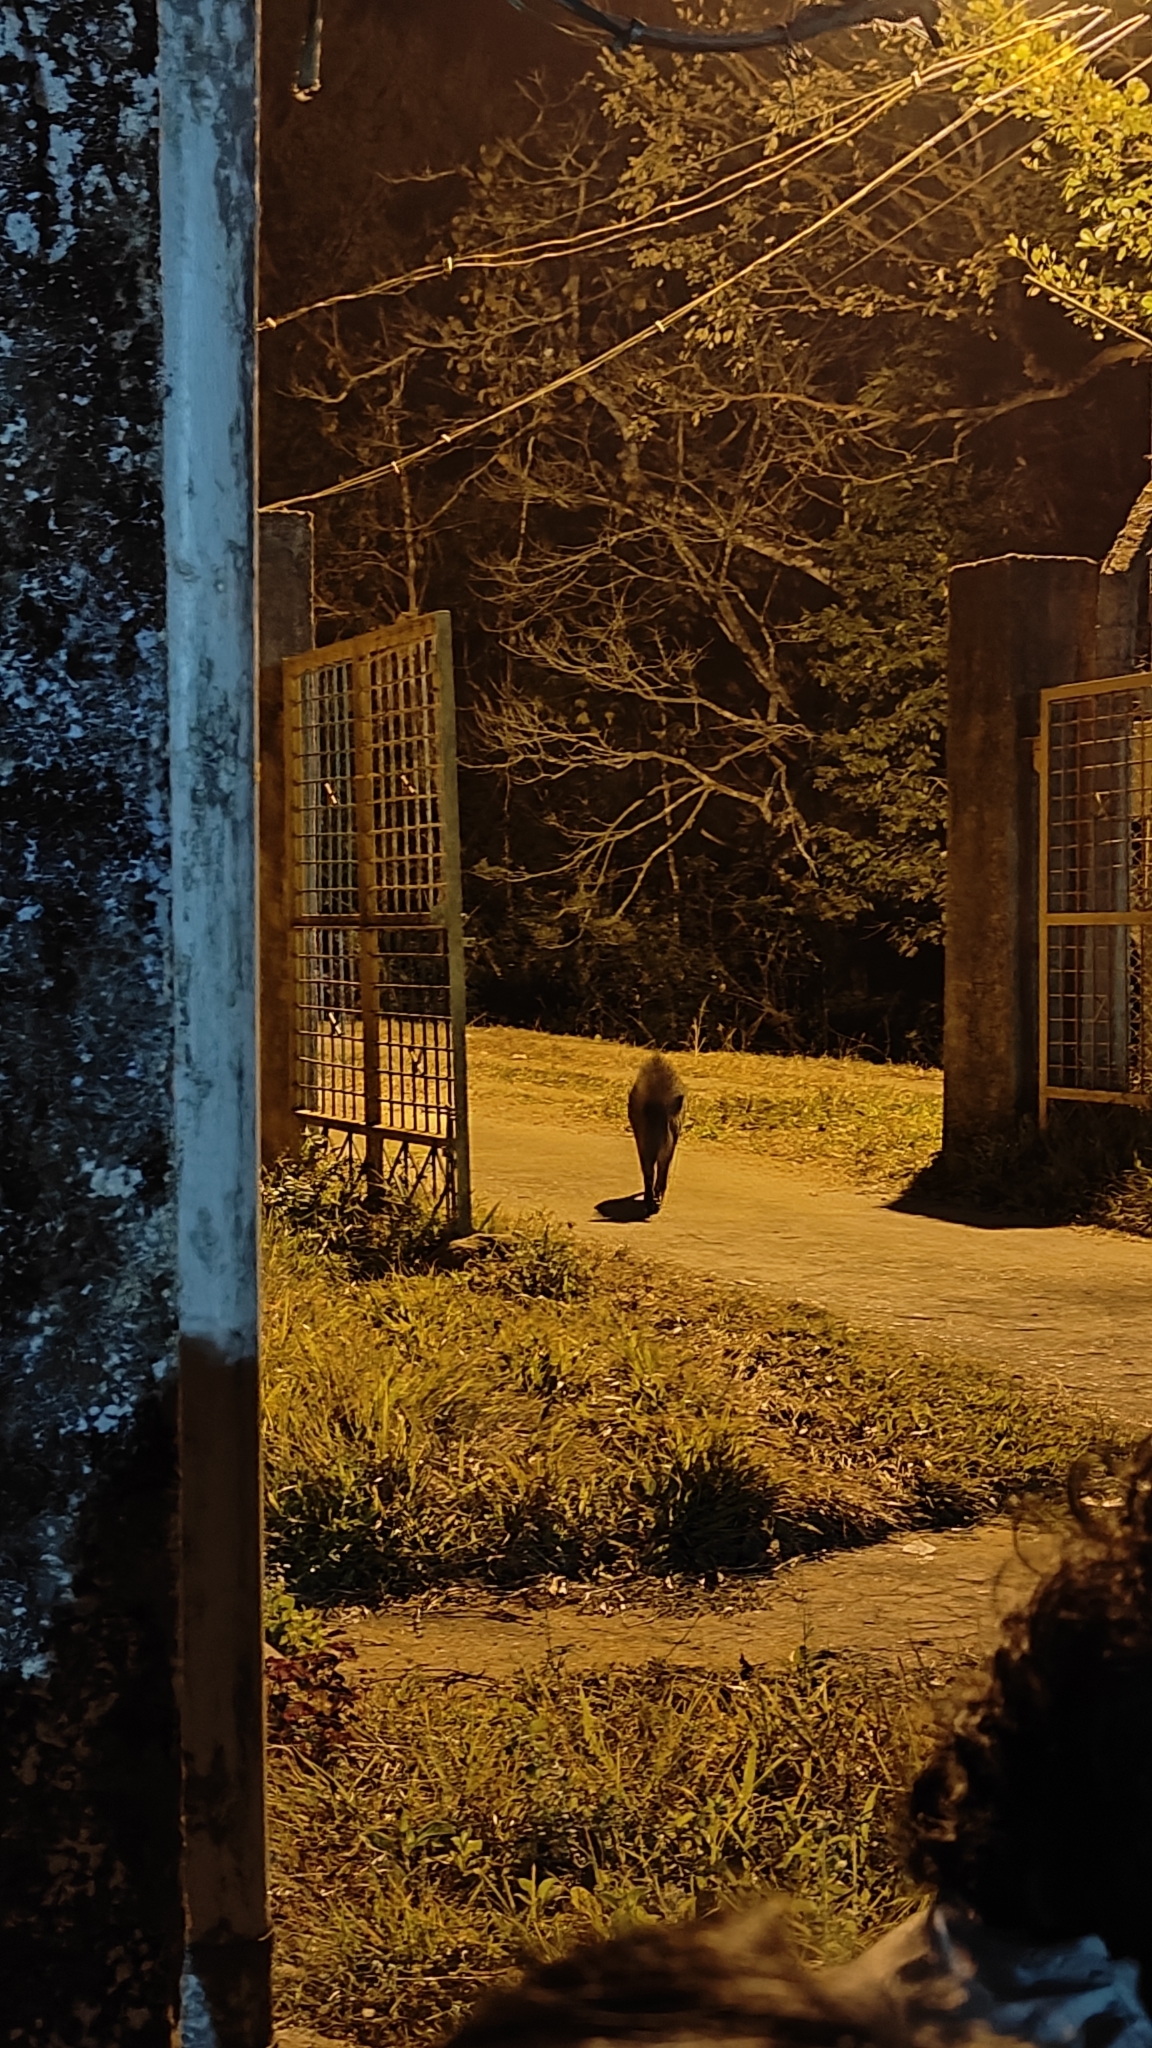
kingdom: Animalia
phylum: Chordata
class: Mammalia
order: Artiodactyla
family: Suidae
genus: Sus
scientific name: Sus scrofa
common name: Wild boar
